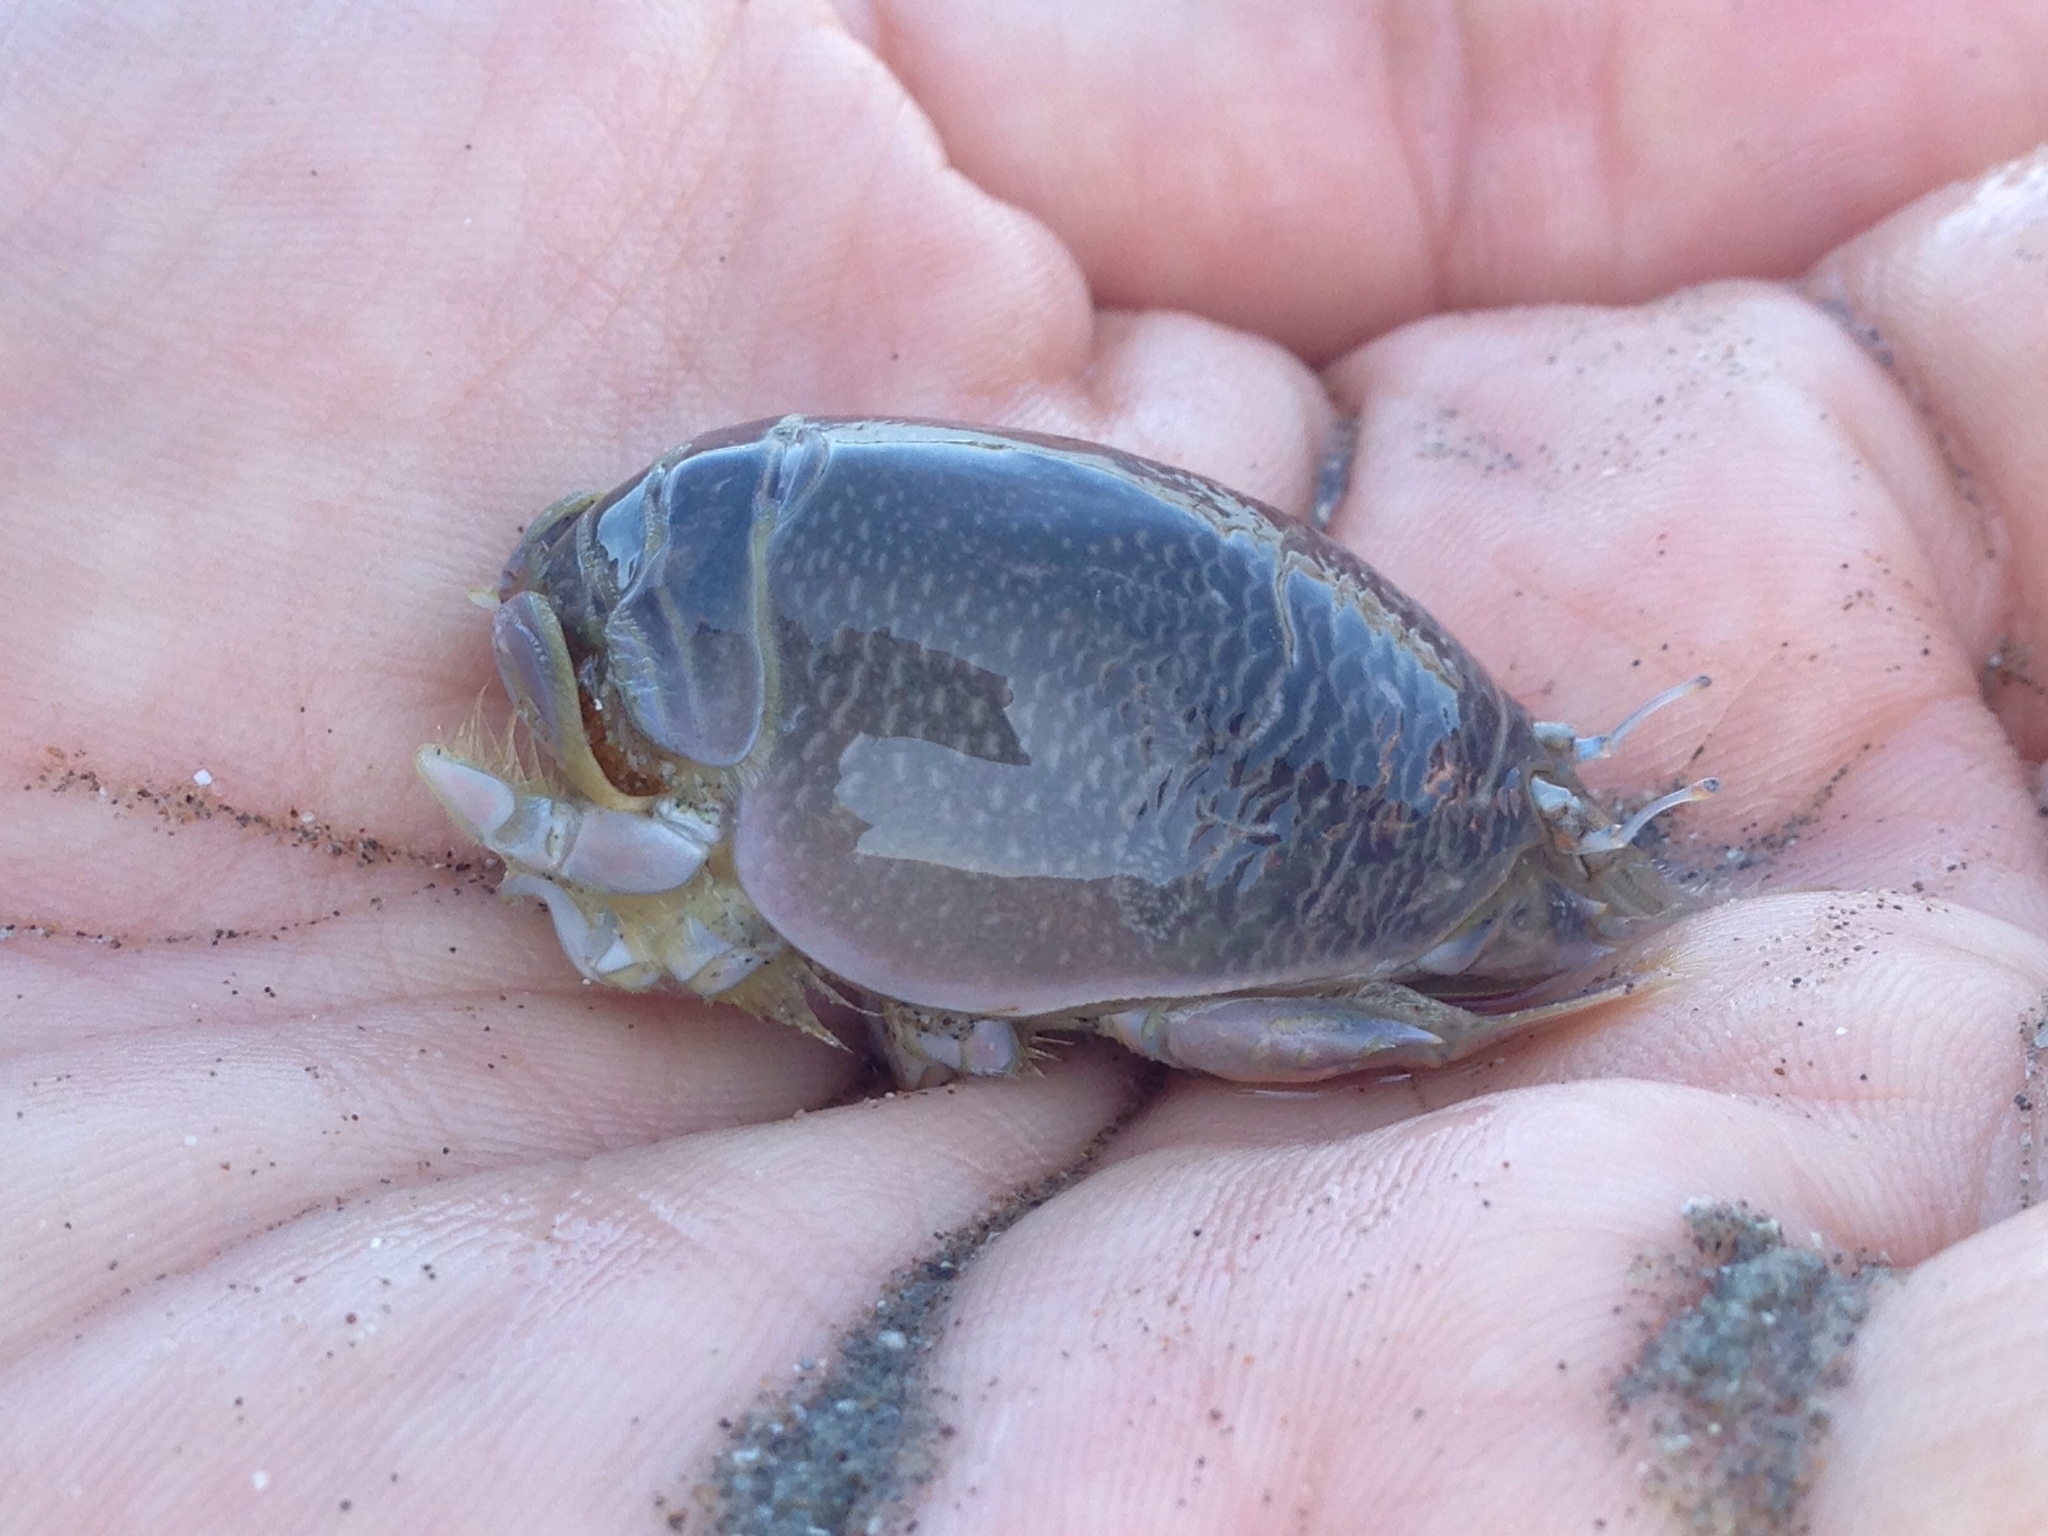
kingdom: Animalia
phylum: Arthropoda
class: Malacostraca
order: Decapoda
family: Hippidae
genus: Emerita
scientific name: Emerita analoga
